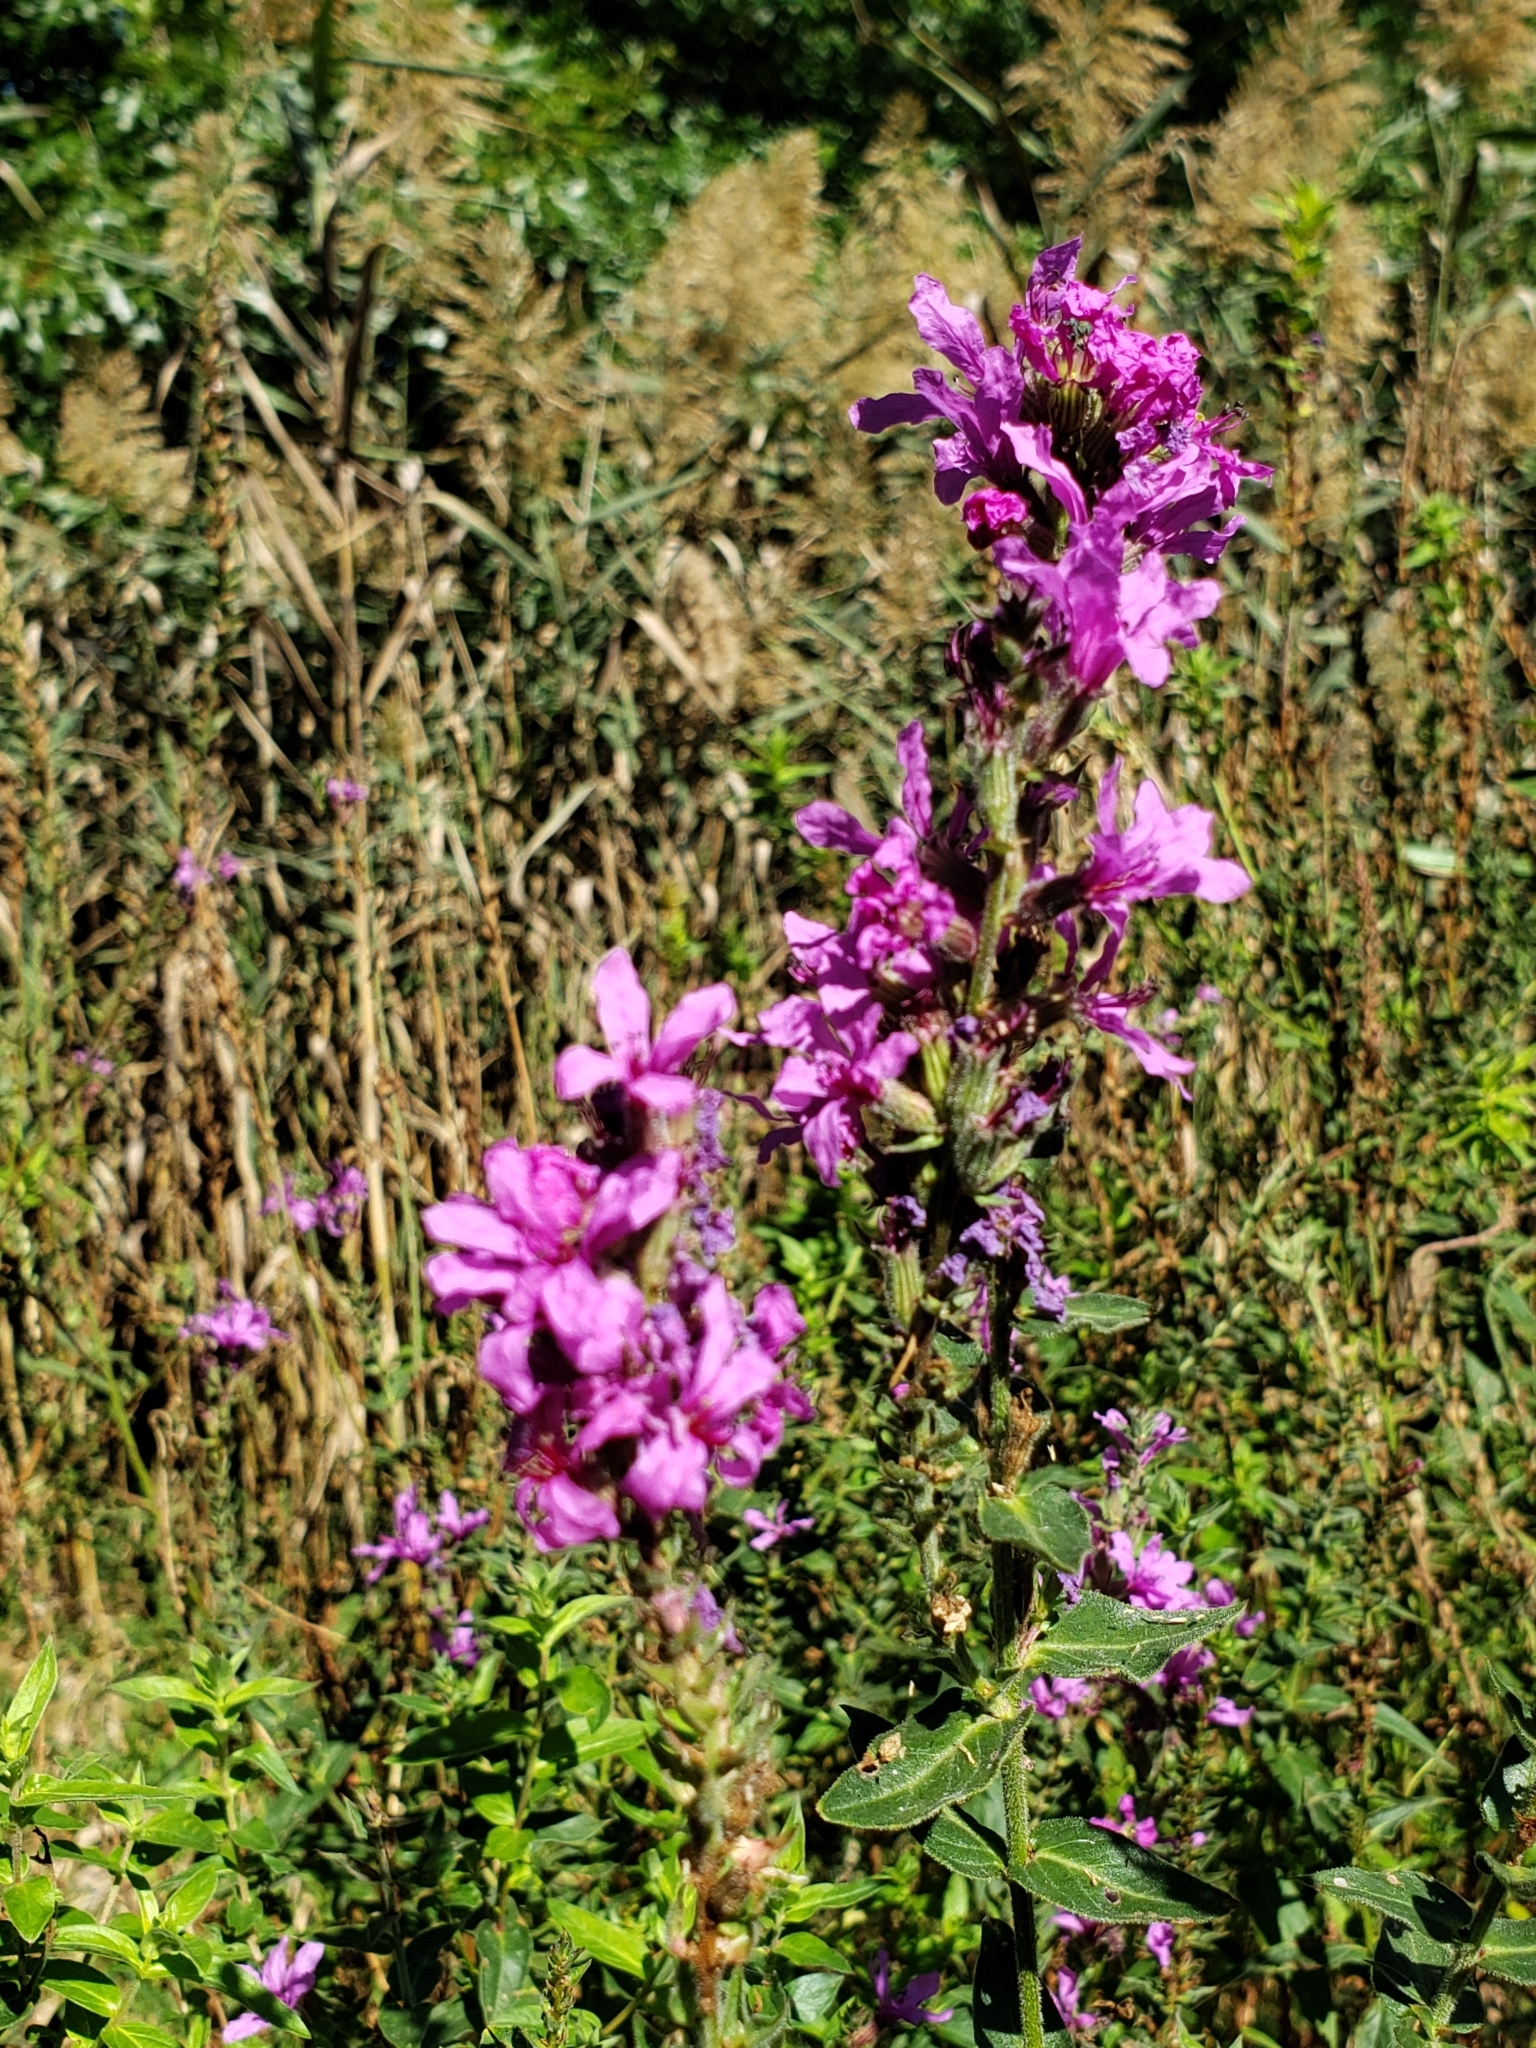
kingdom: Plantae
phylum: Tracheophyta
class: Magnoliopsida
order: Myrtales
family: Lythraceae
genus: Lythrum
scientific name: Lythrum salicaria
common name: Purple loosestrife
